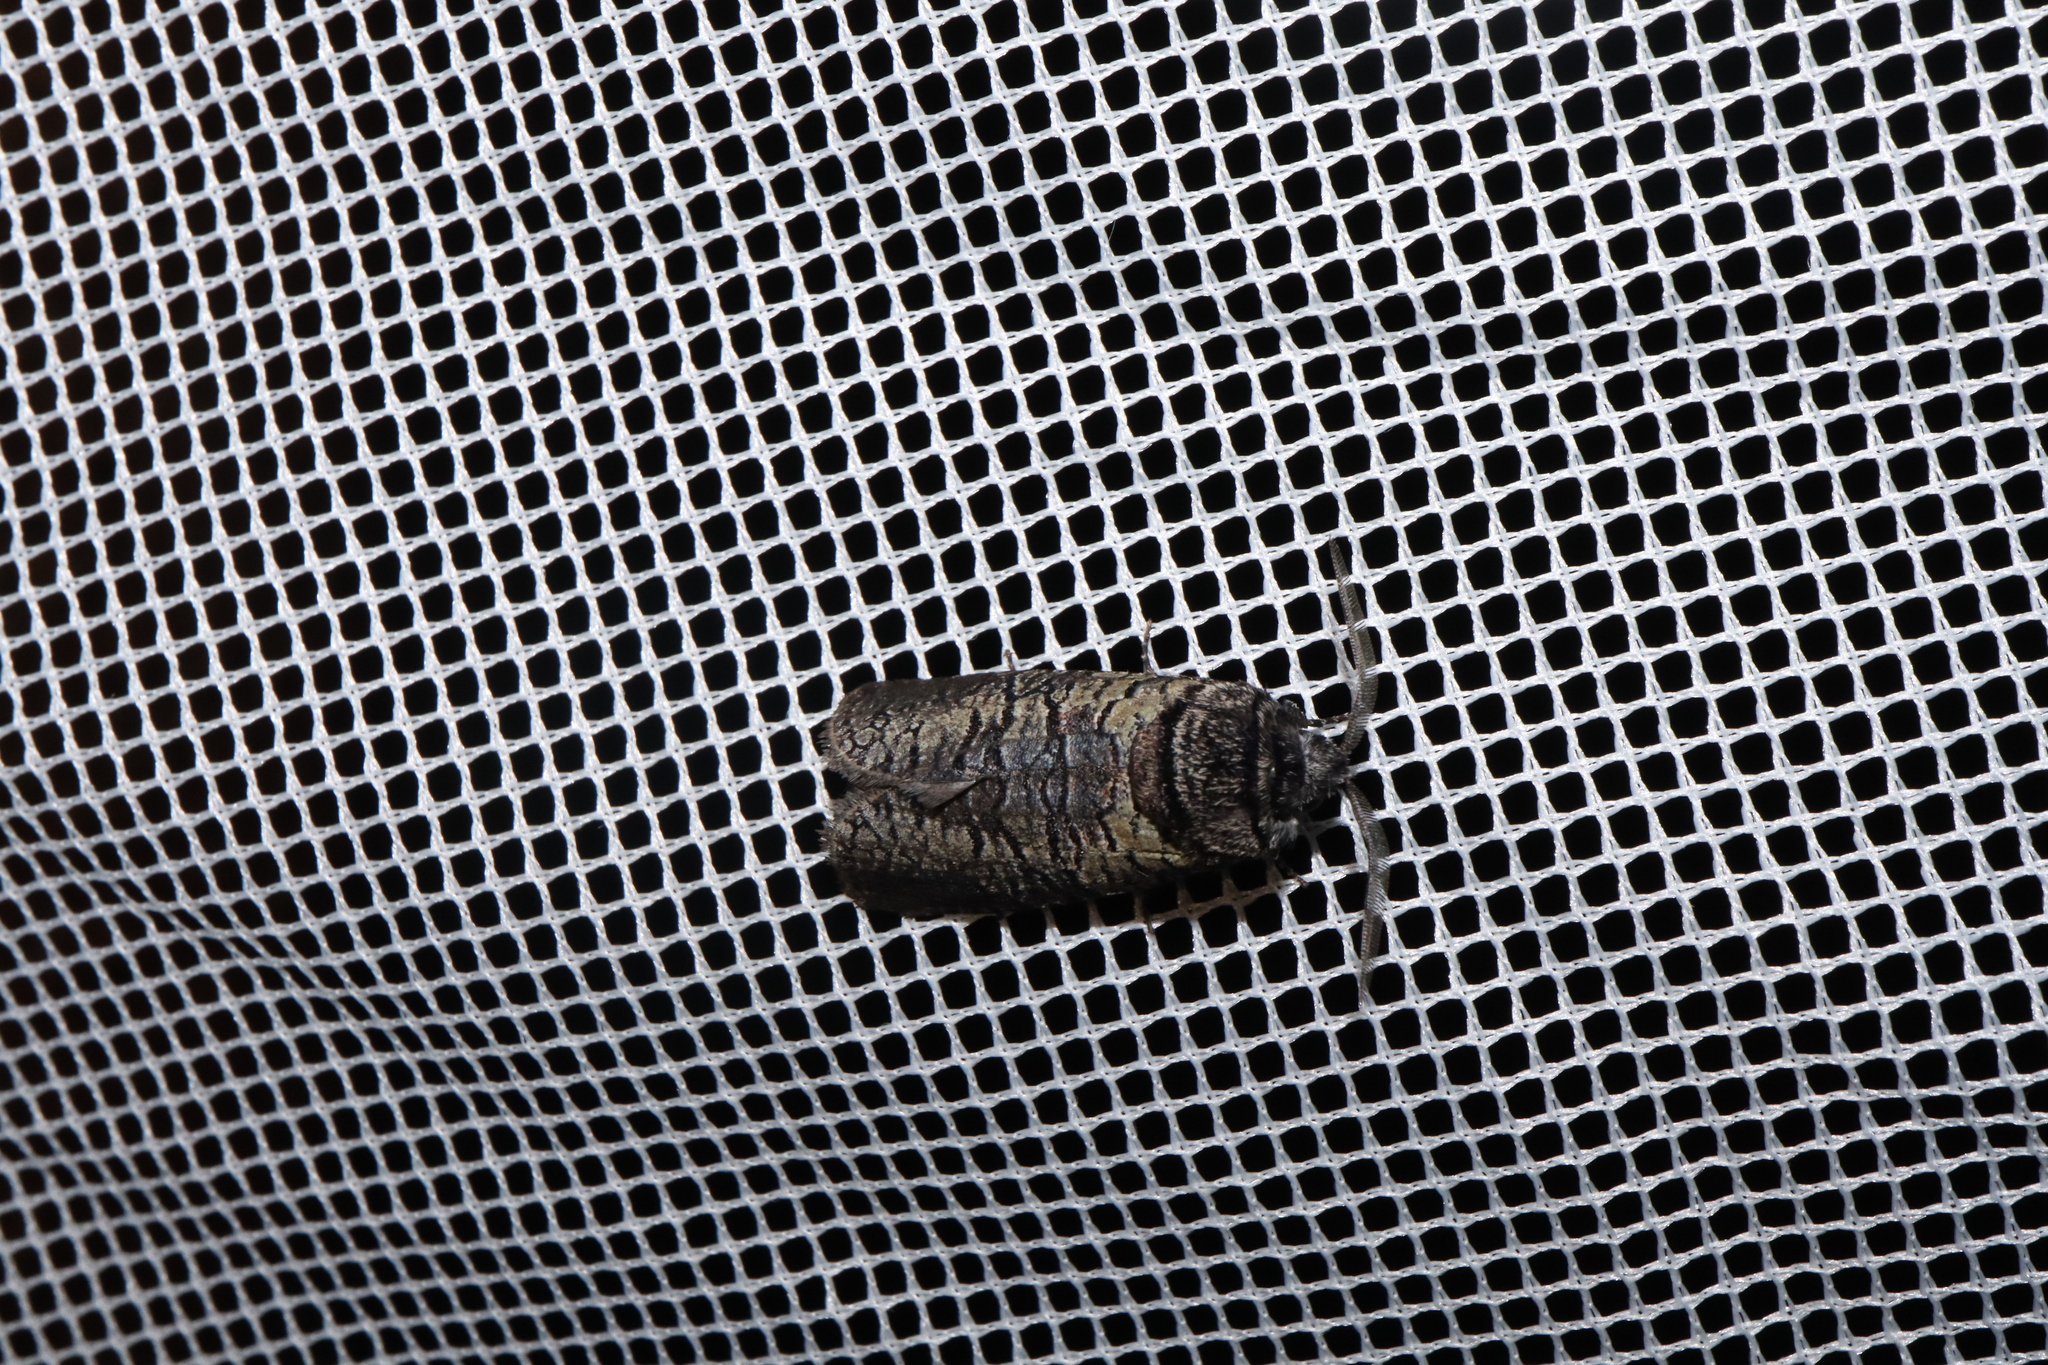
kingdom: Animalia
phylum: Arthropoda
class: Insecta
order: Lepidoptera
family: Cossidae
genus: Culama
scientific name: Culama glauca
